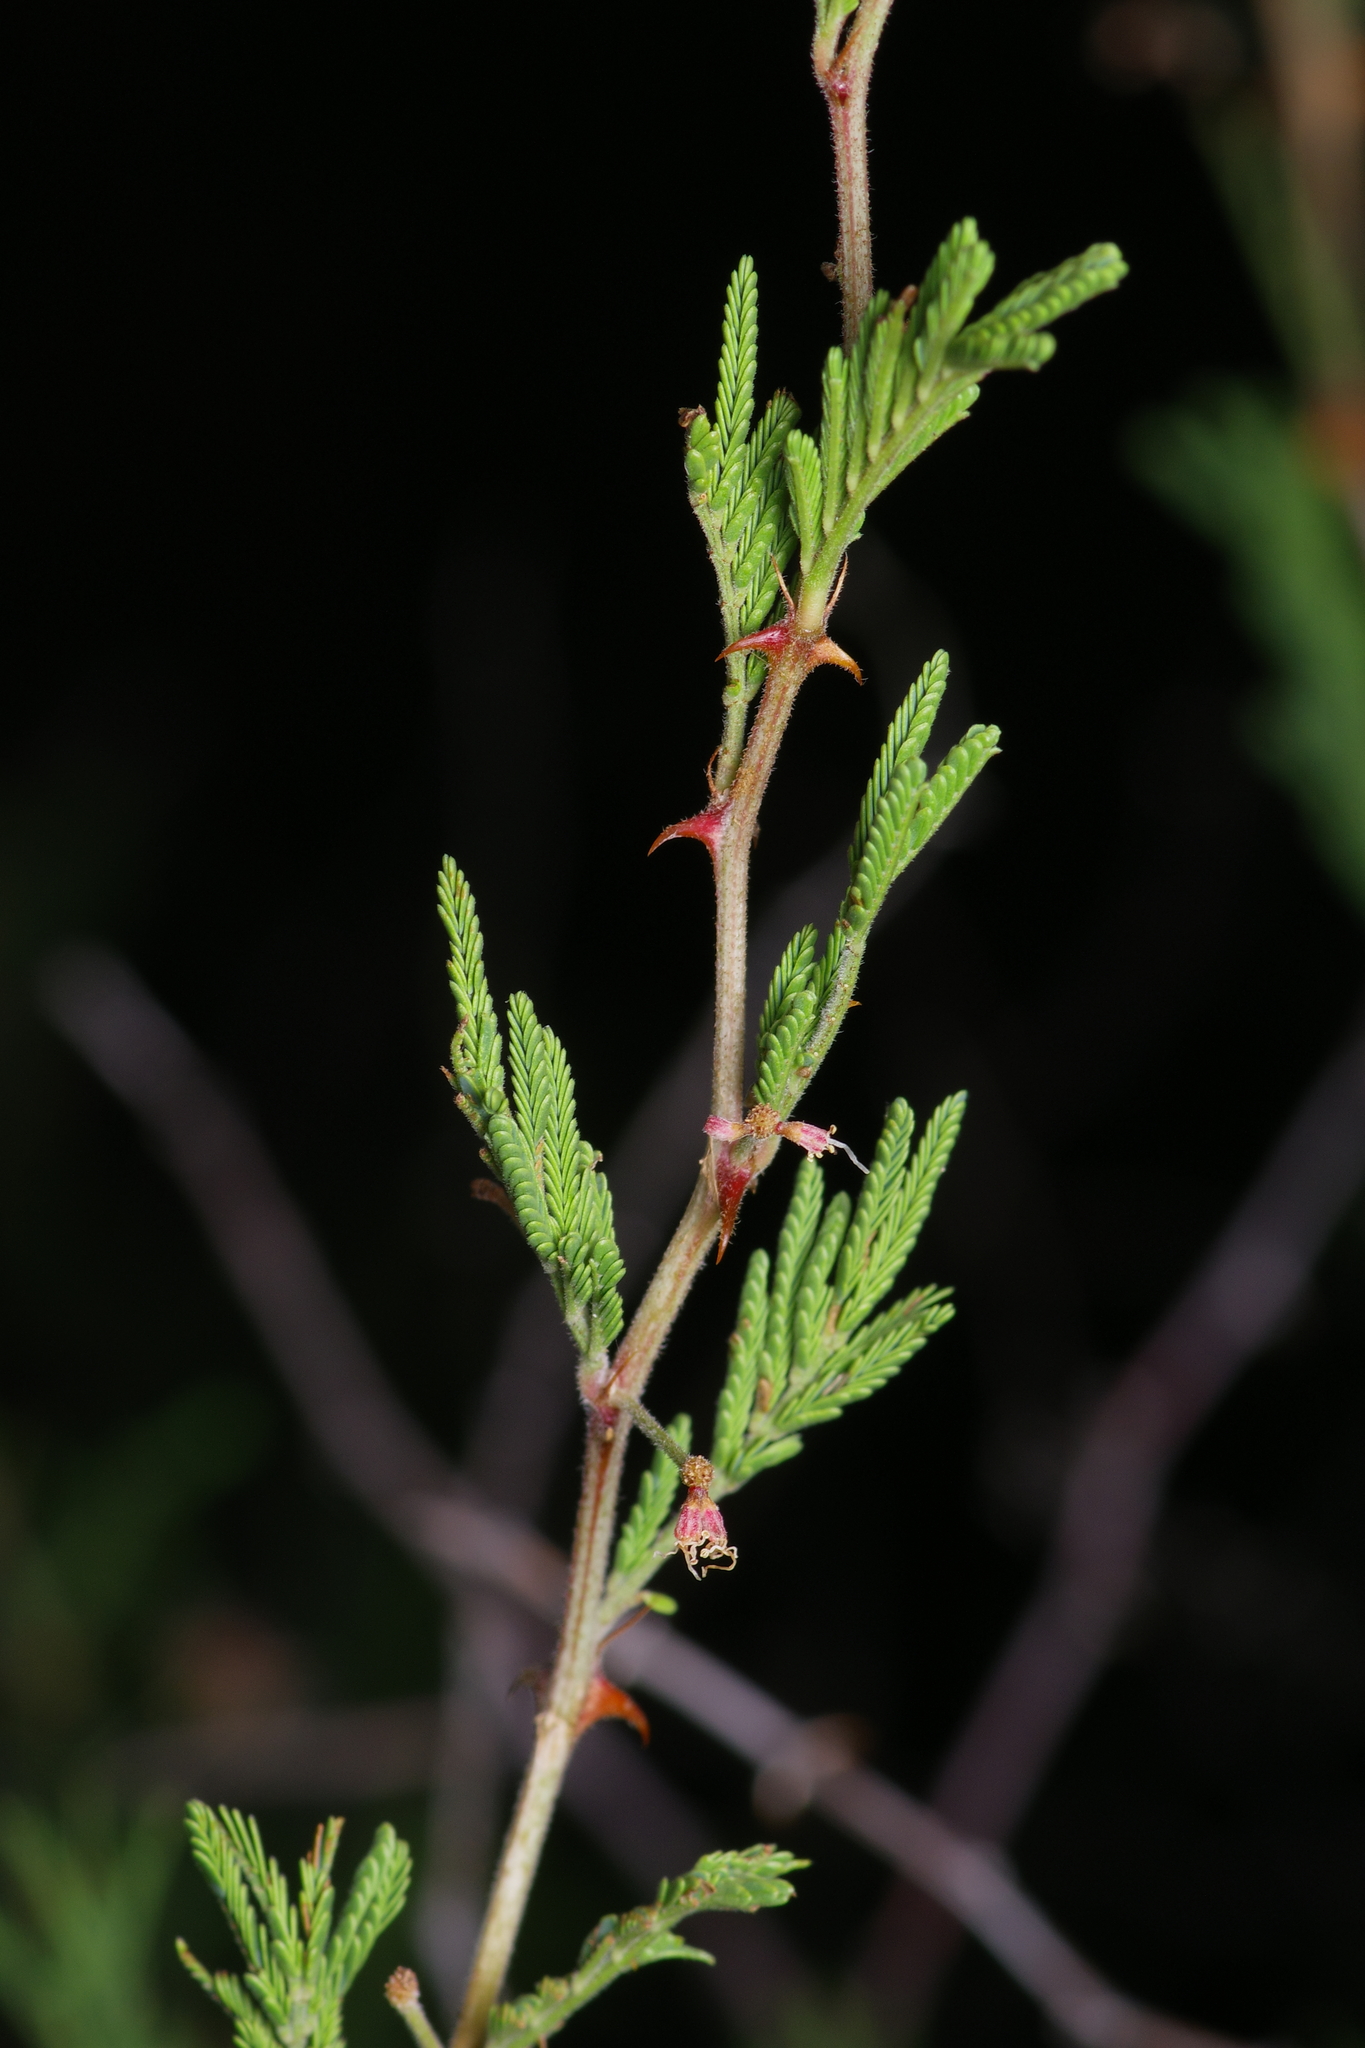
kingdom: Plantae
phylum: Tracheophyta
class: Magnoliopsida
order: Fabales
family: Fabaceae
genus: Mimosa
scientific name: Mimosa aculeaticarpa
